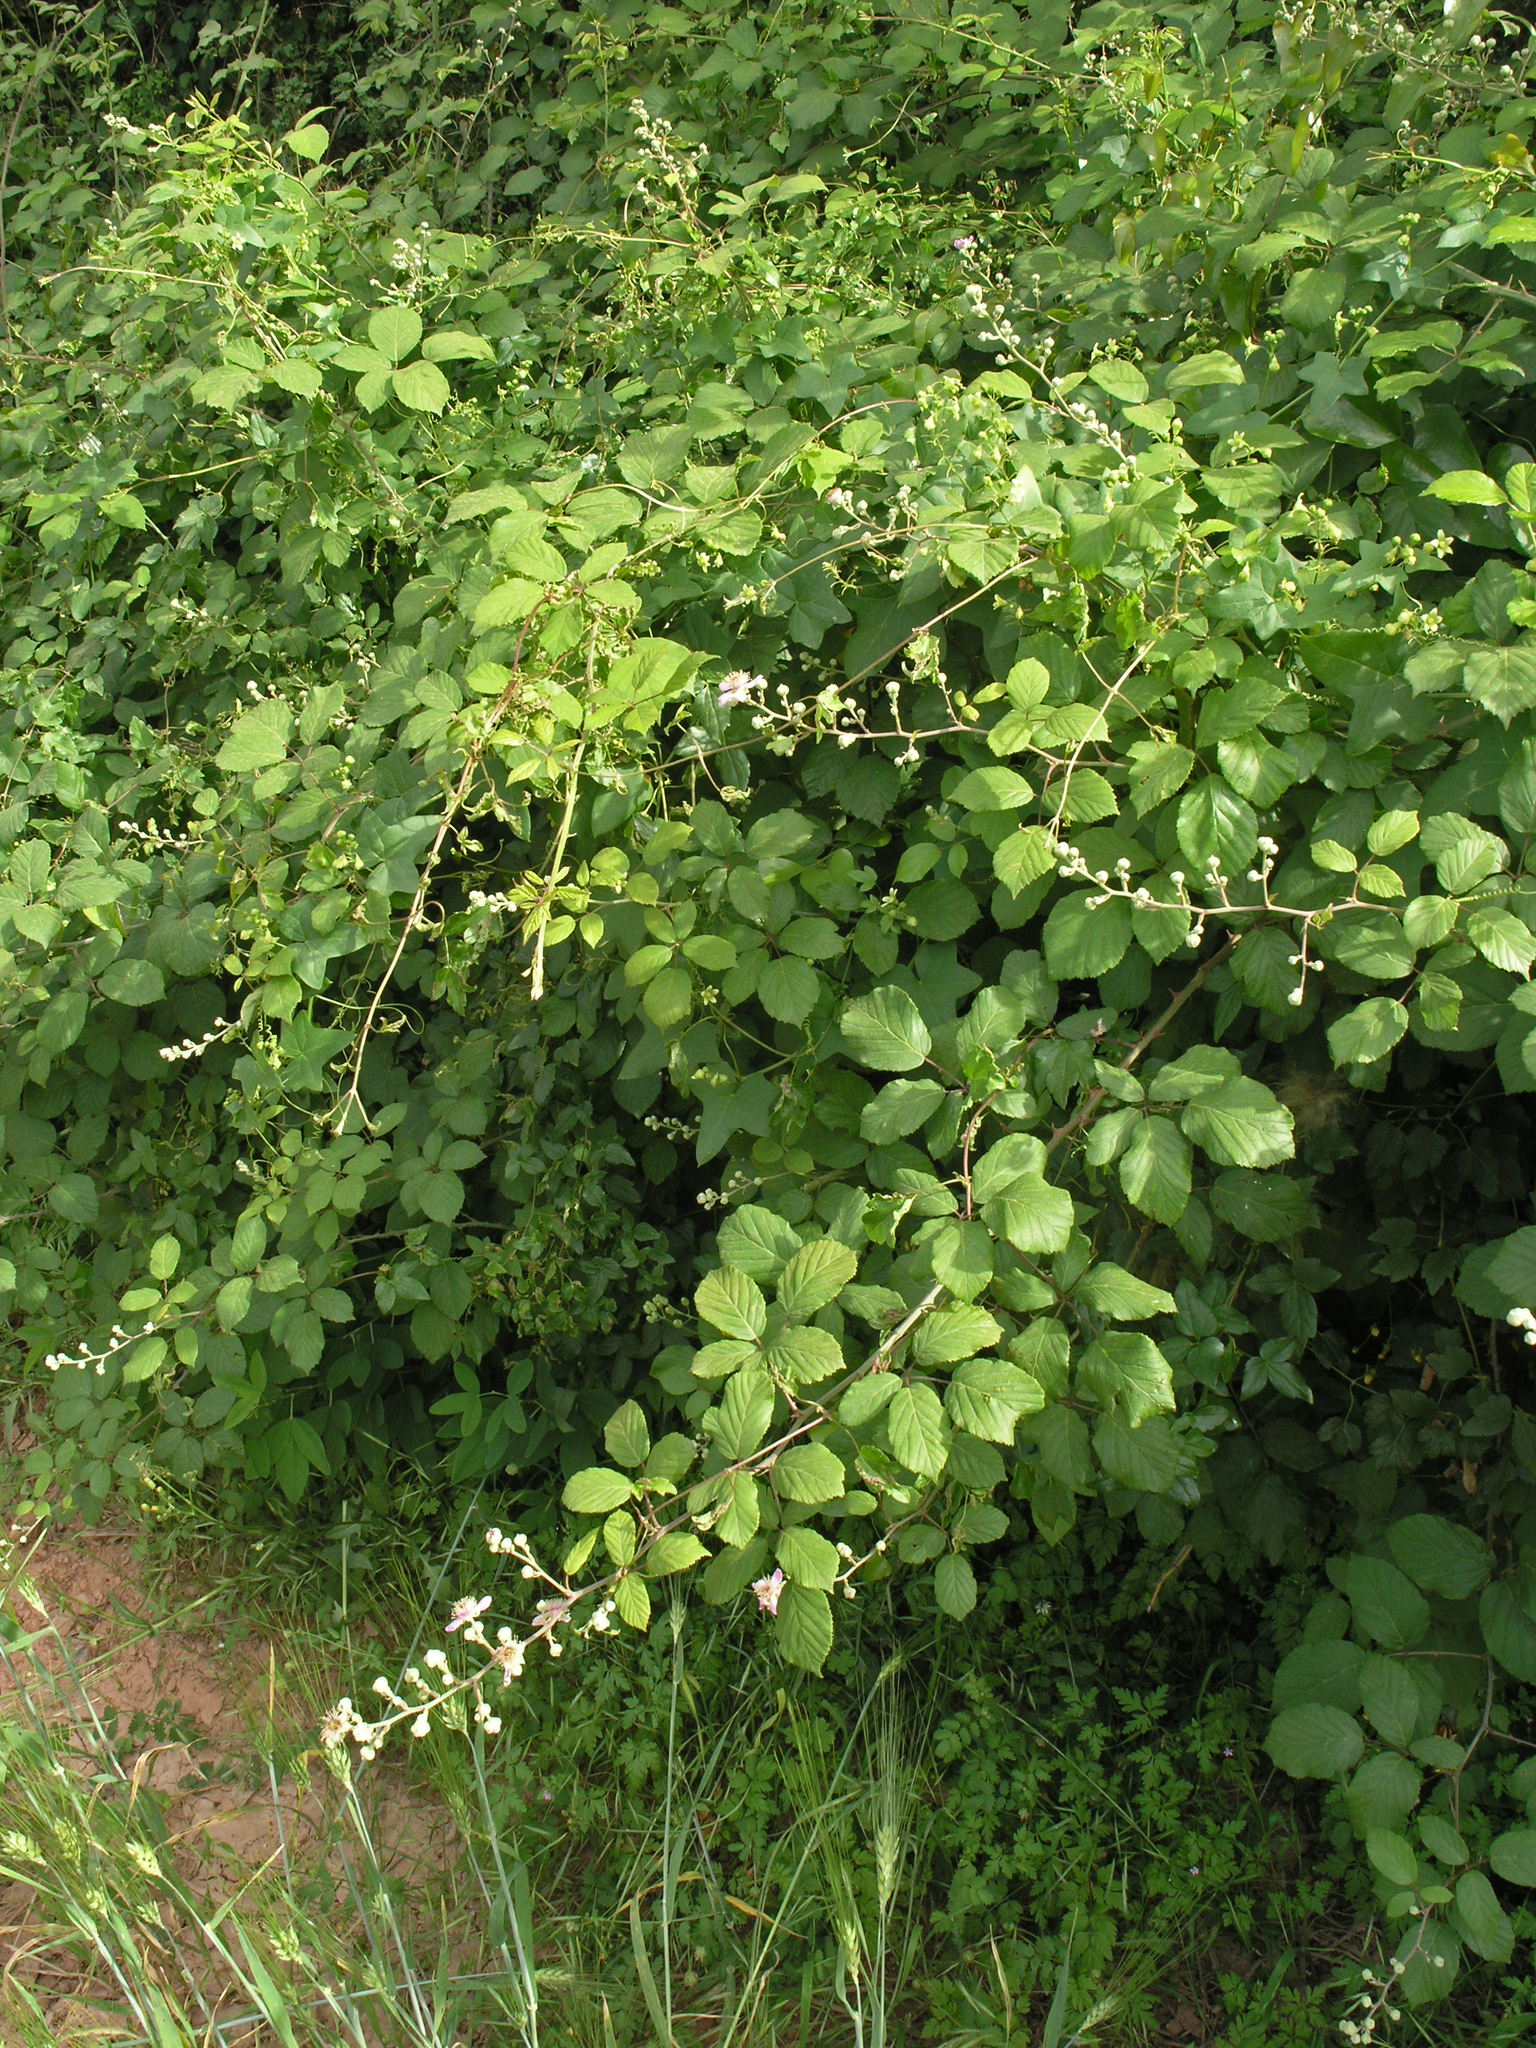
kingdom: Plantae
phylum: Tracheophyta
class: Magnoliopsida
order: Rosales
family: Rosaceae
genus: Rubus
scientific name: Rubus ulmifolius
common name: Elmleaf blackberry
